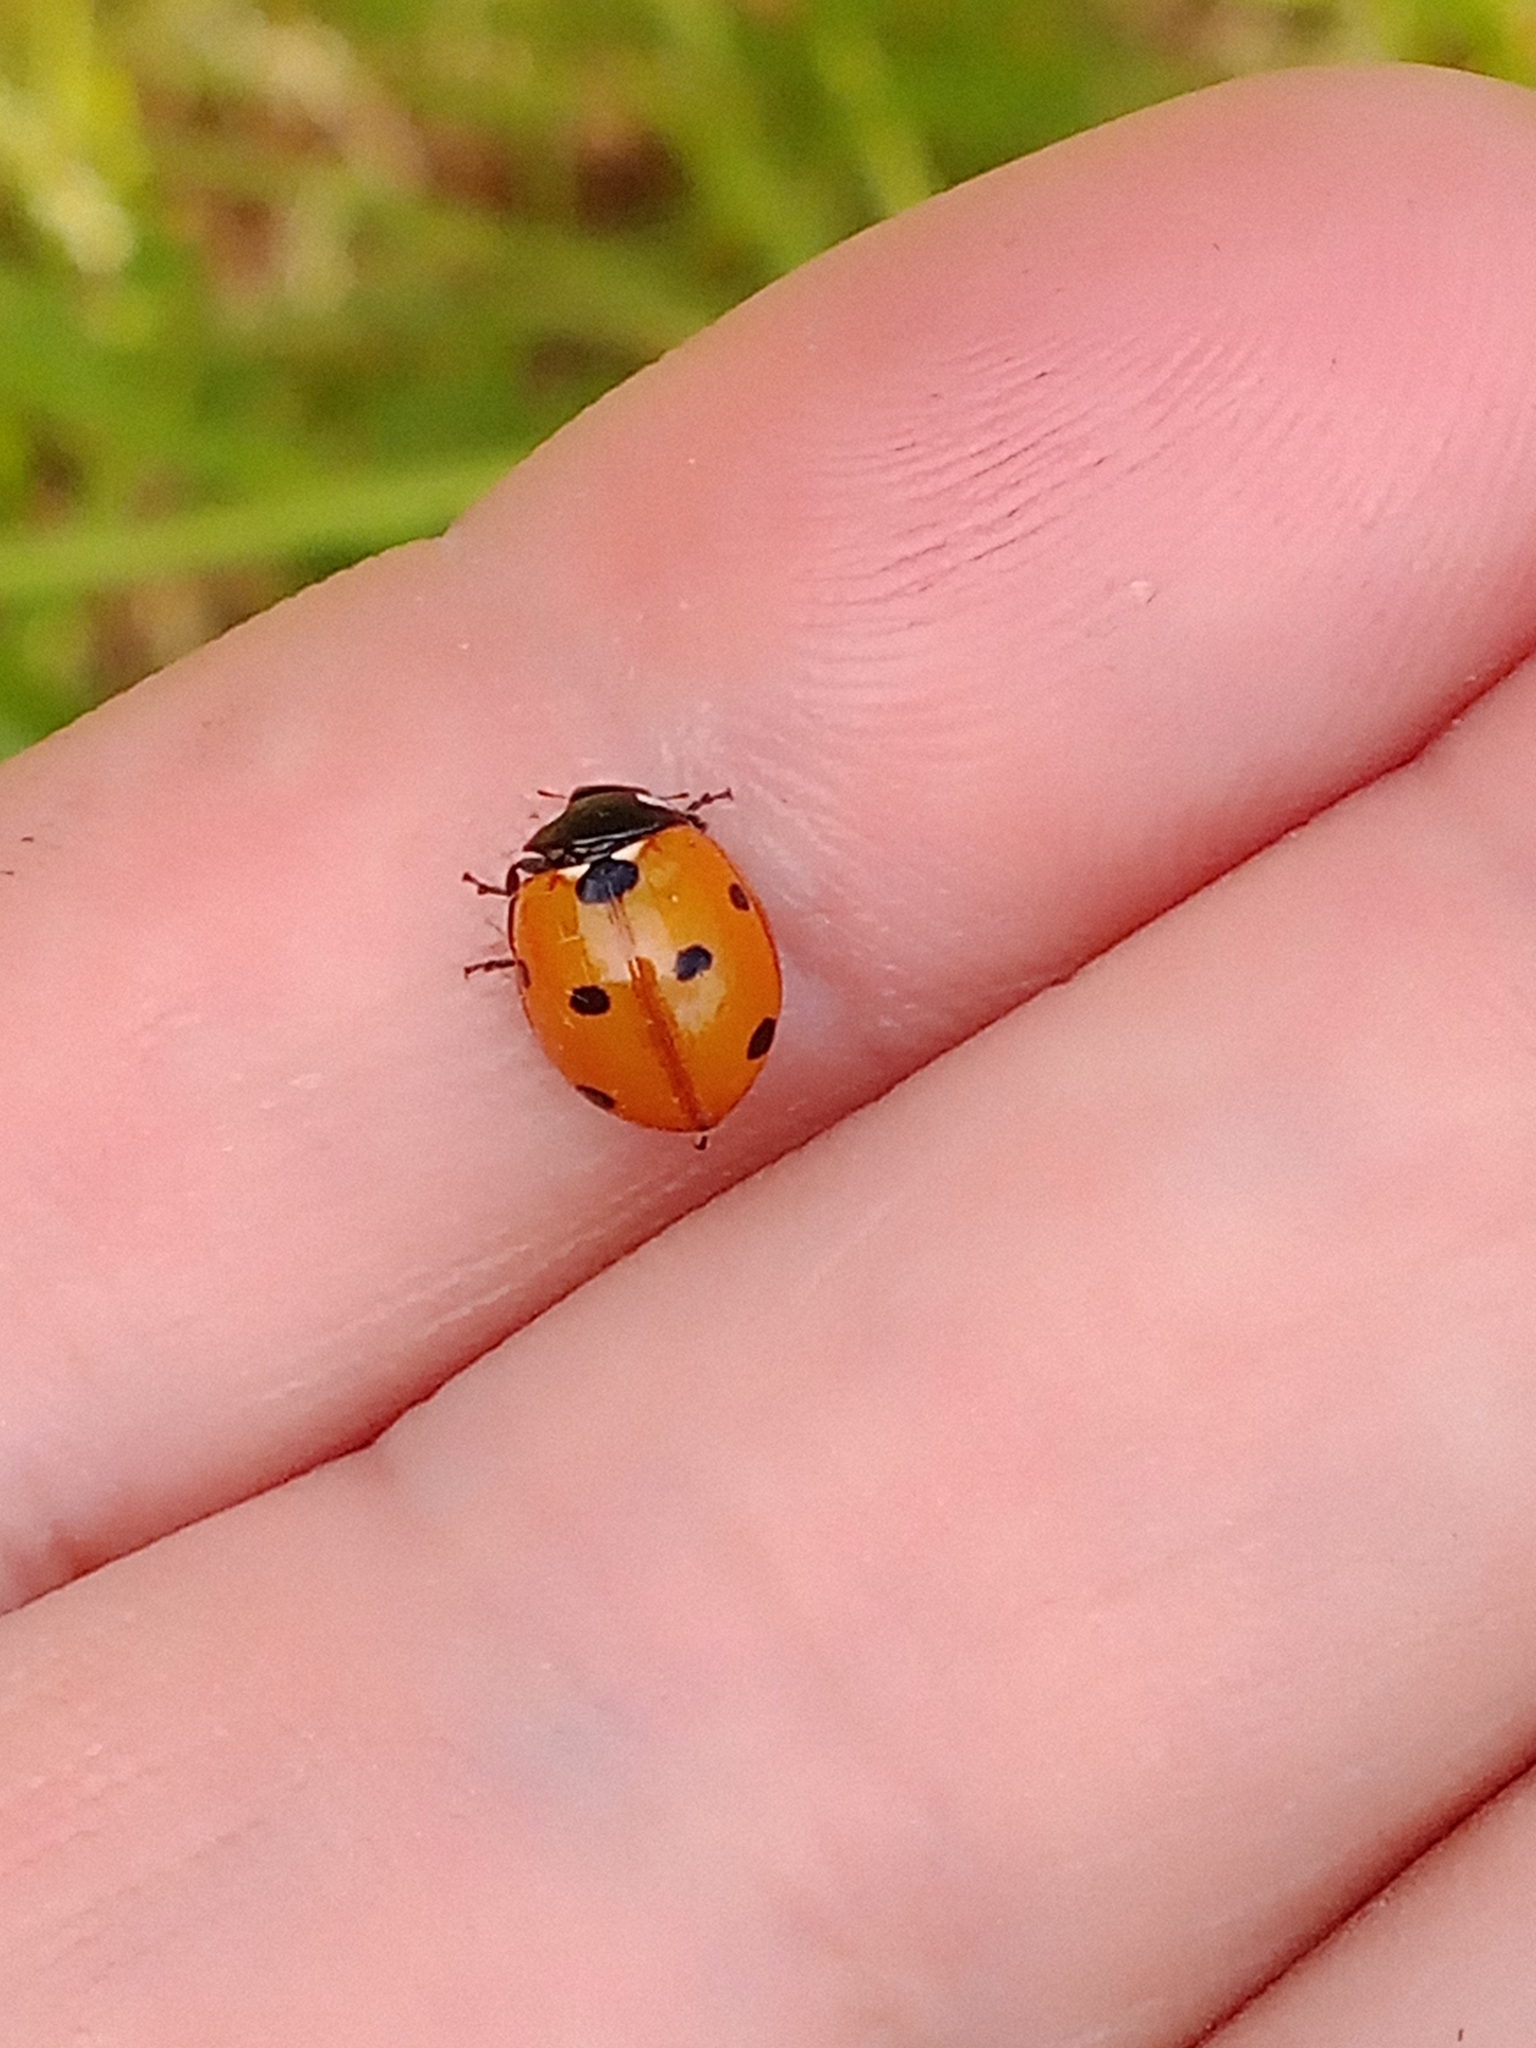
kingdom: Animalia
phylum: Arthropoda
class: Insecta
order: Coleoptera
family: Coccinellidae
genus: Coccinella
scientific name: Coccinella septempunctata
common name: Sevenspotted lady beetle
